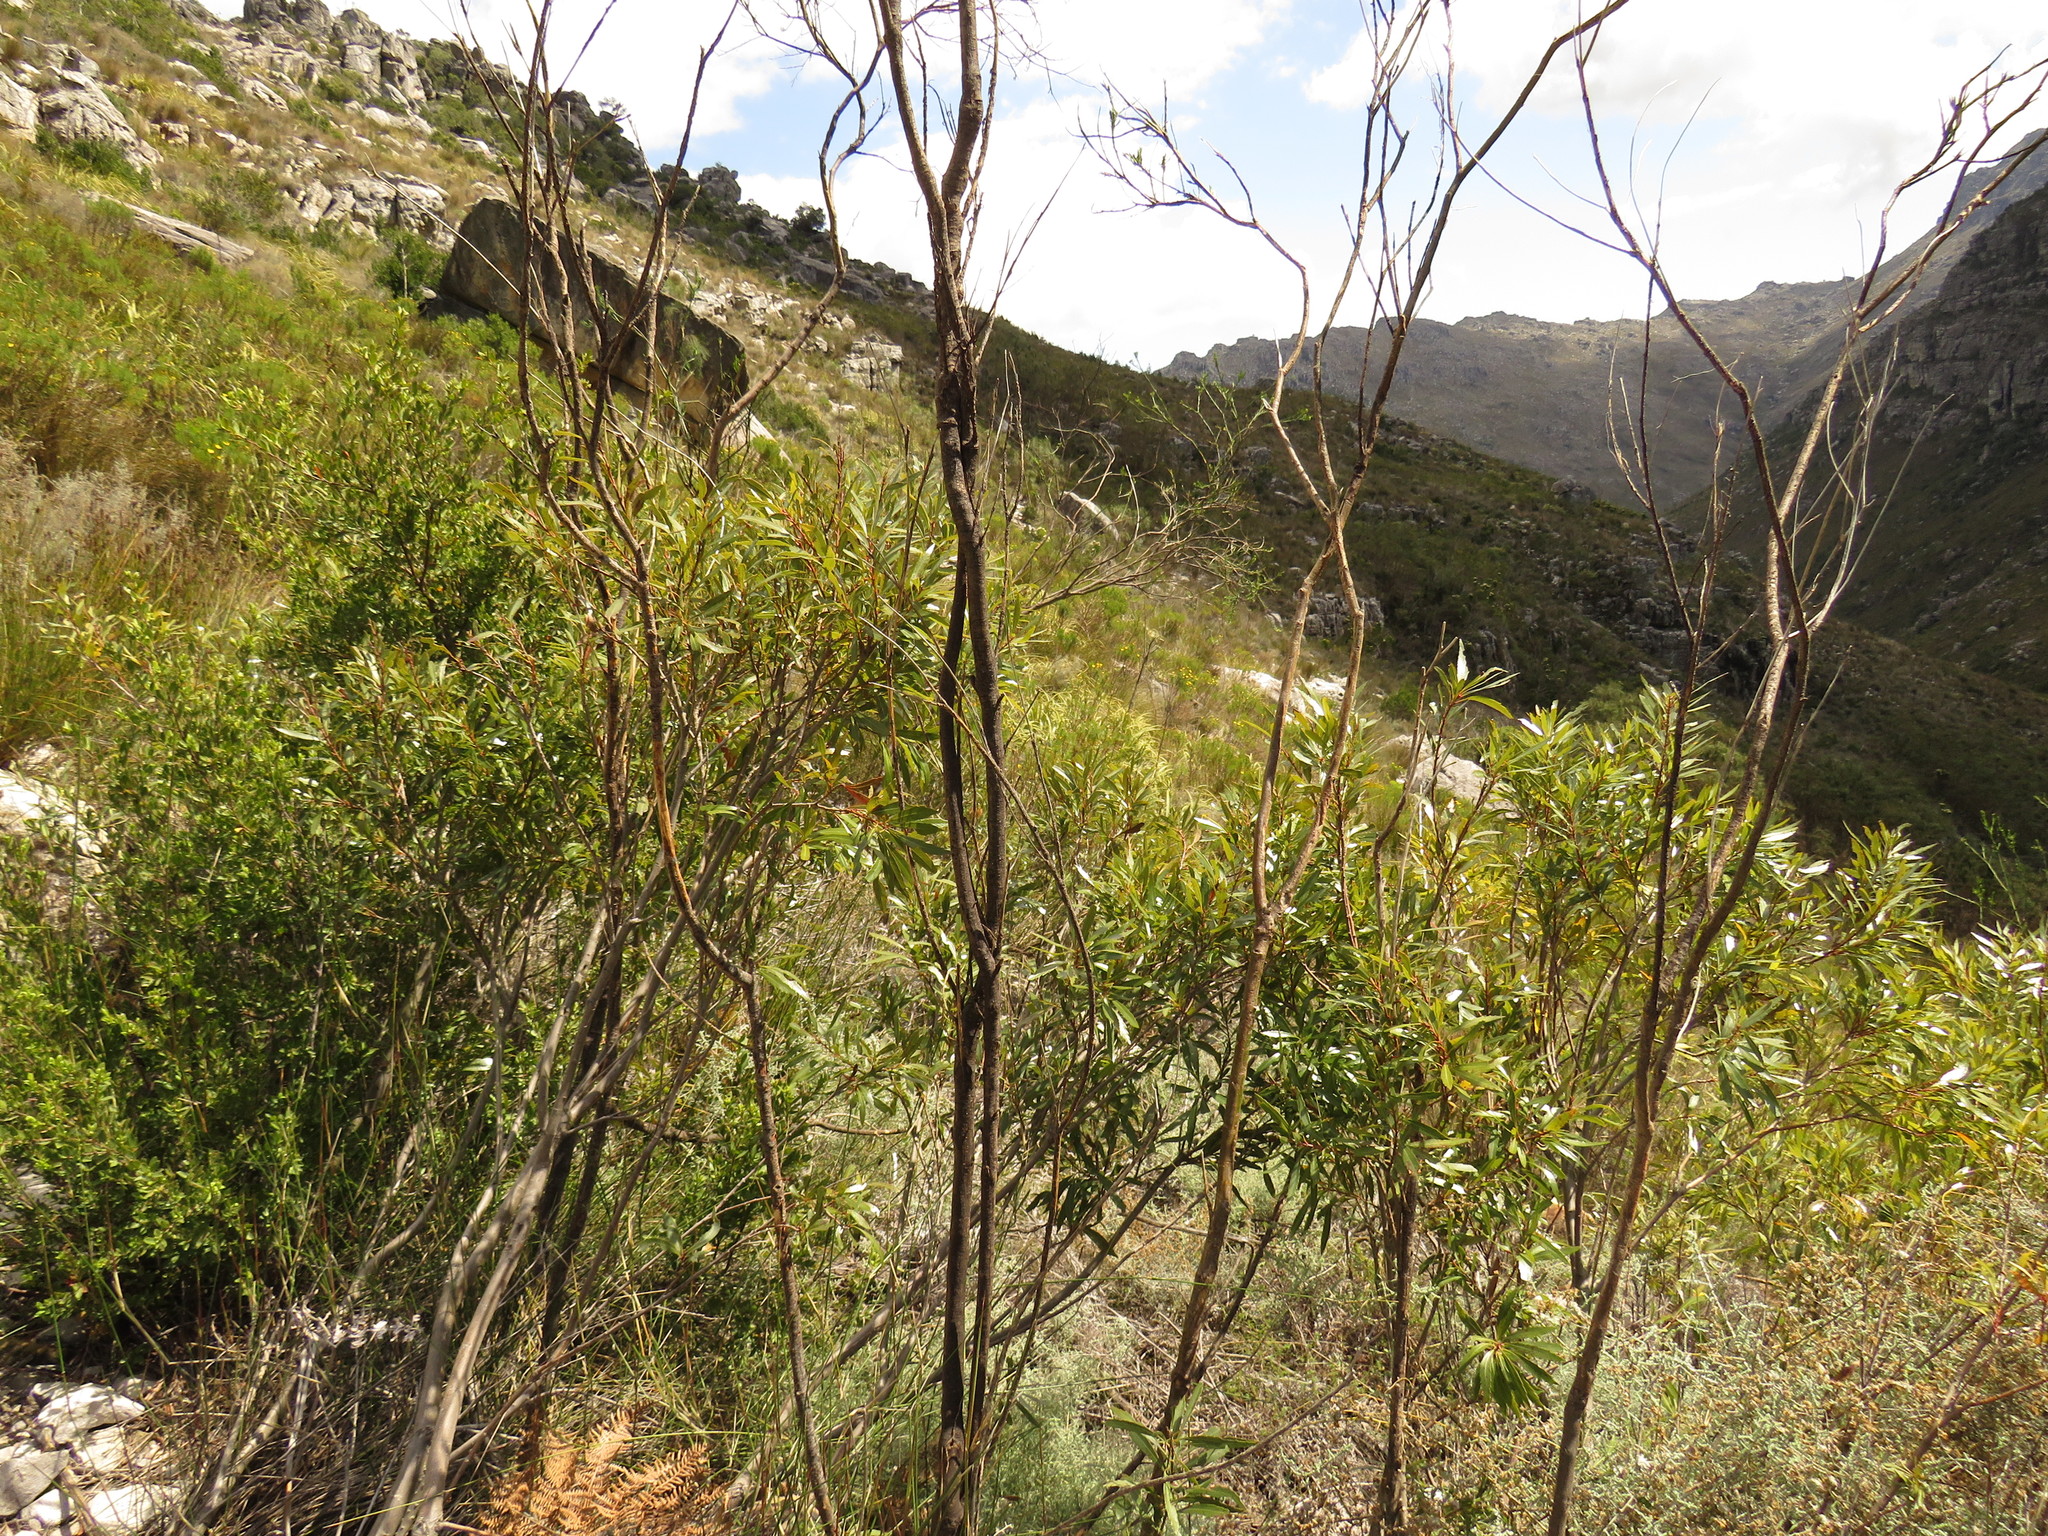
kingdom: Plantae
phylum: Tracheophyta
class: Magnoliopsida
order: Fagales
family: Myricaceae
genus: Morella
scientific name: Morella integra
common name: Western lance-leaved wax-berry
